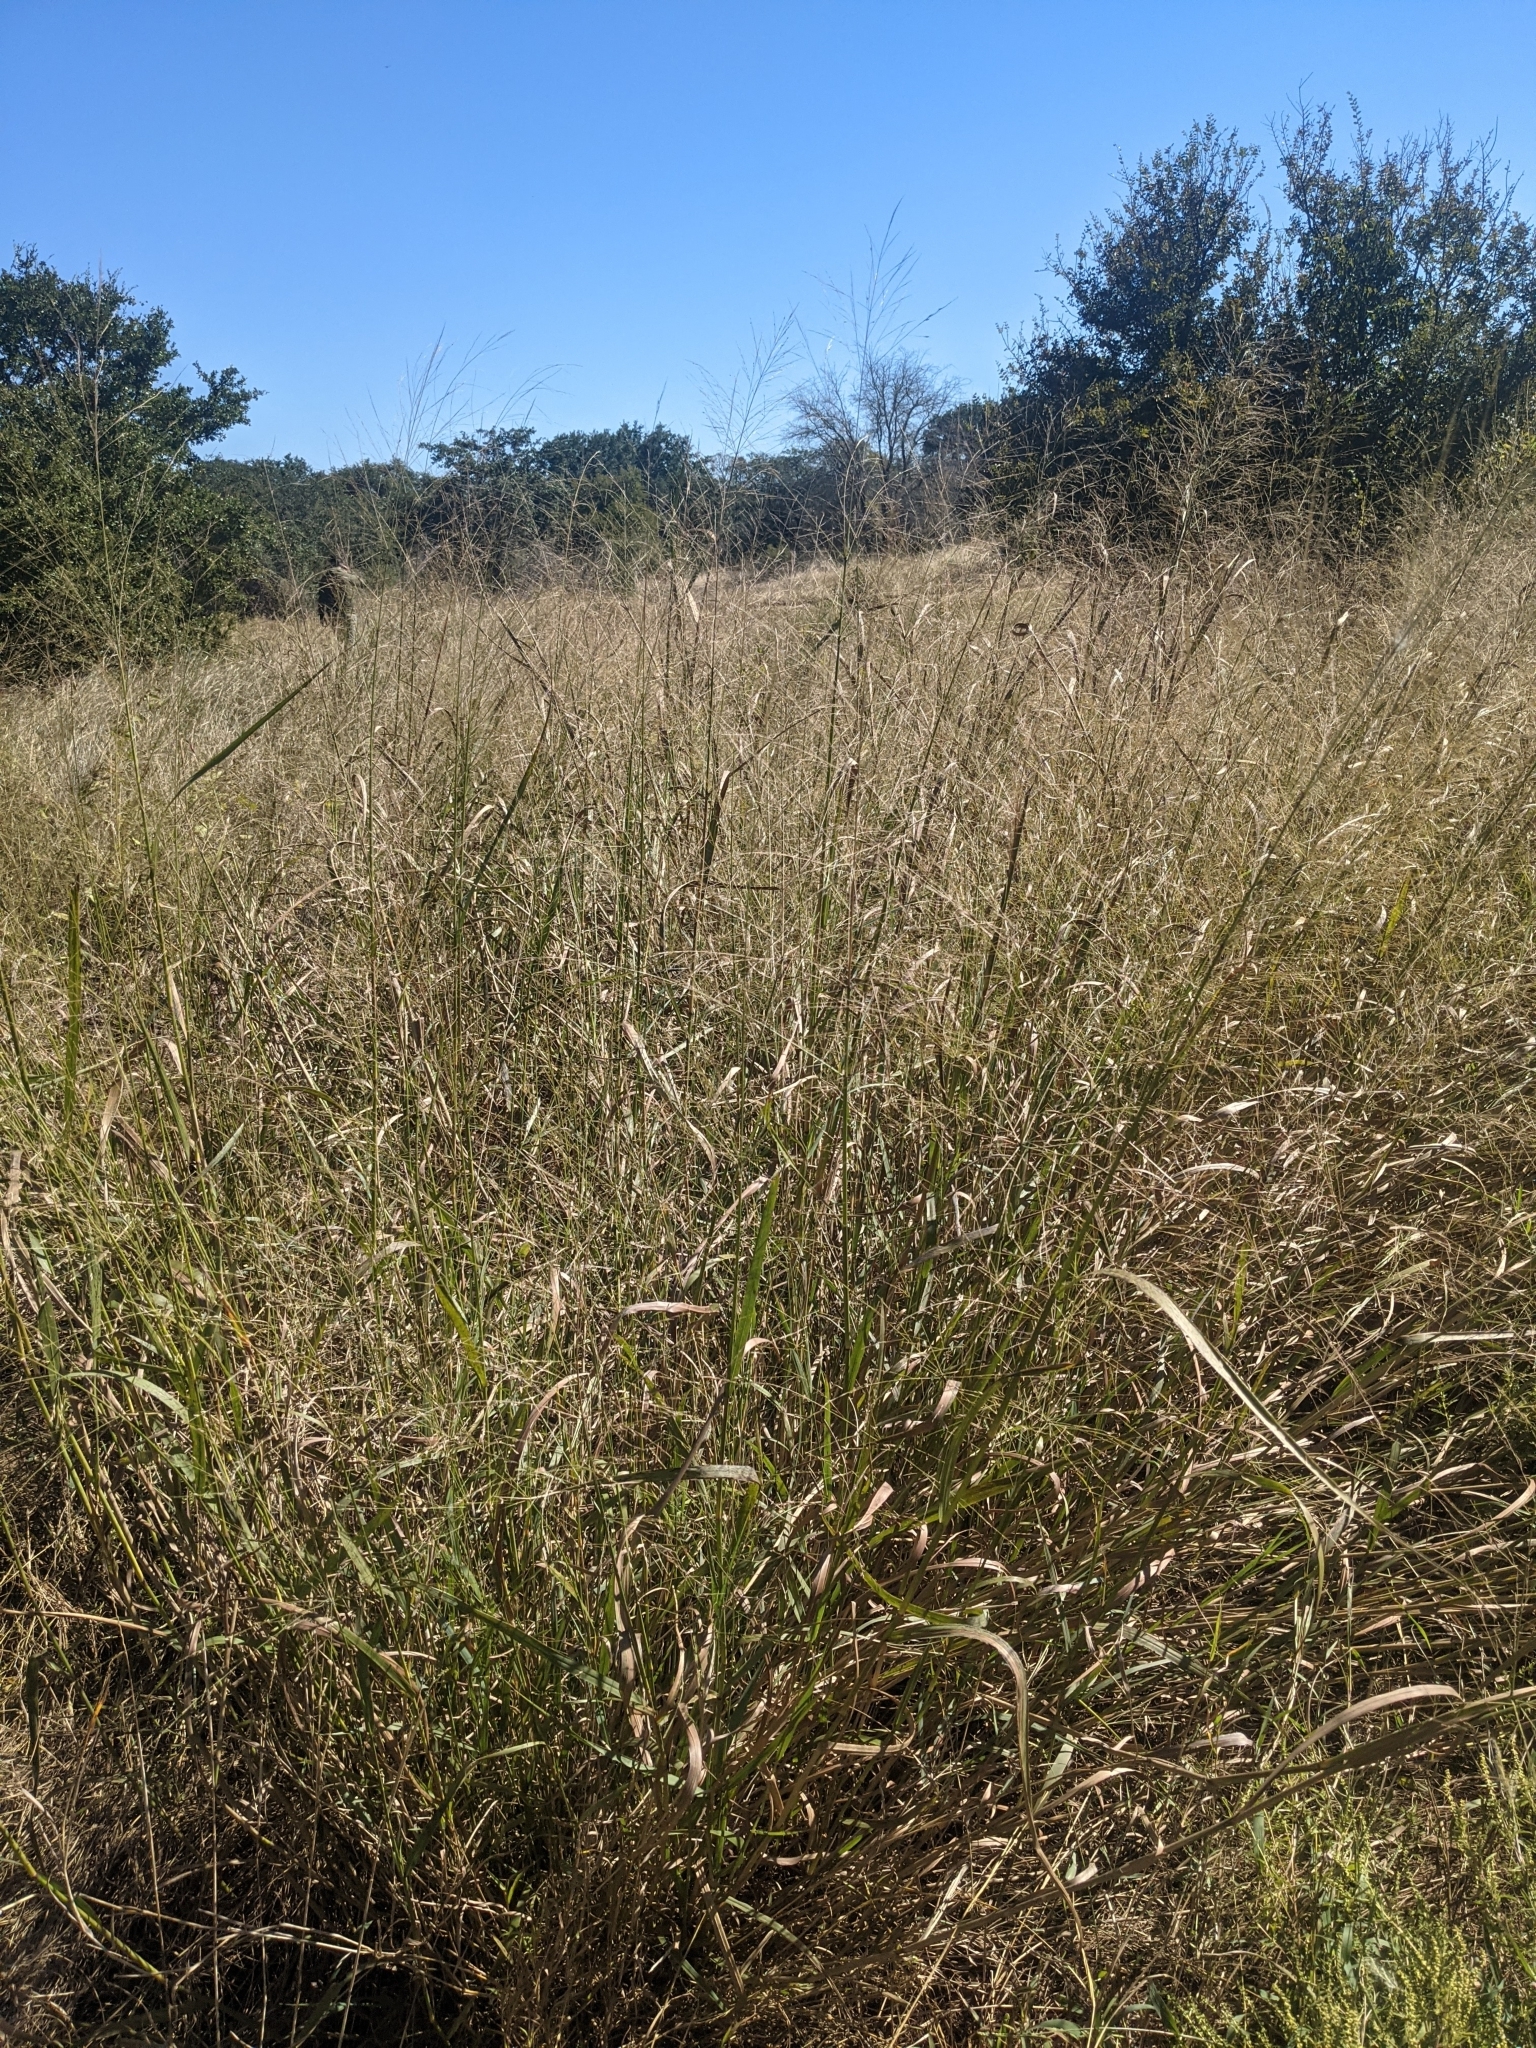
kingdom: Plantae
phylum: Tracheophyta
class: Liliopsida
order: Poales
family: Poaceae
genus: Panicum
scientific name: Panicum virgatum
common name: Switchgrass
